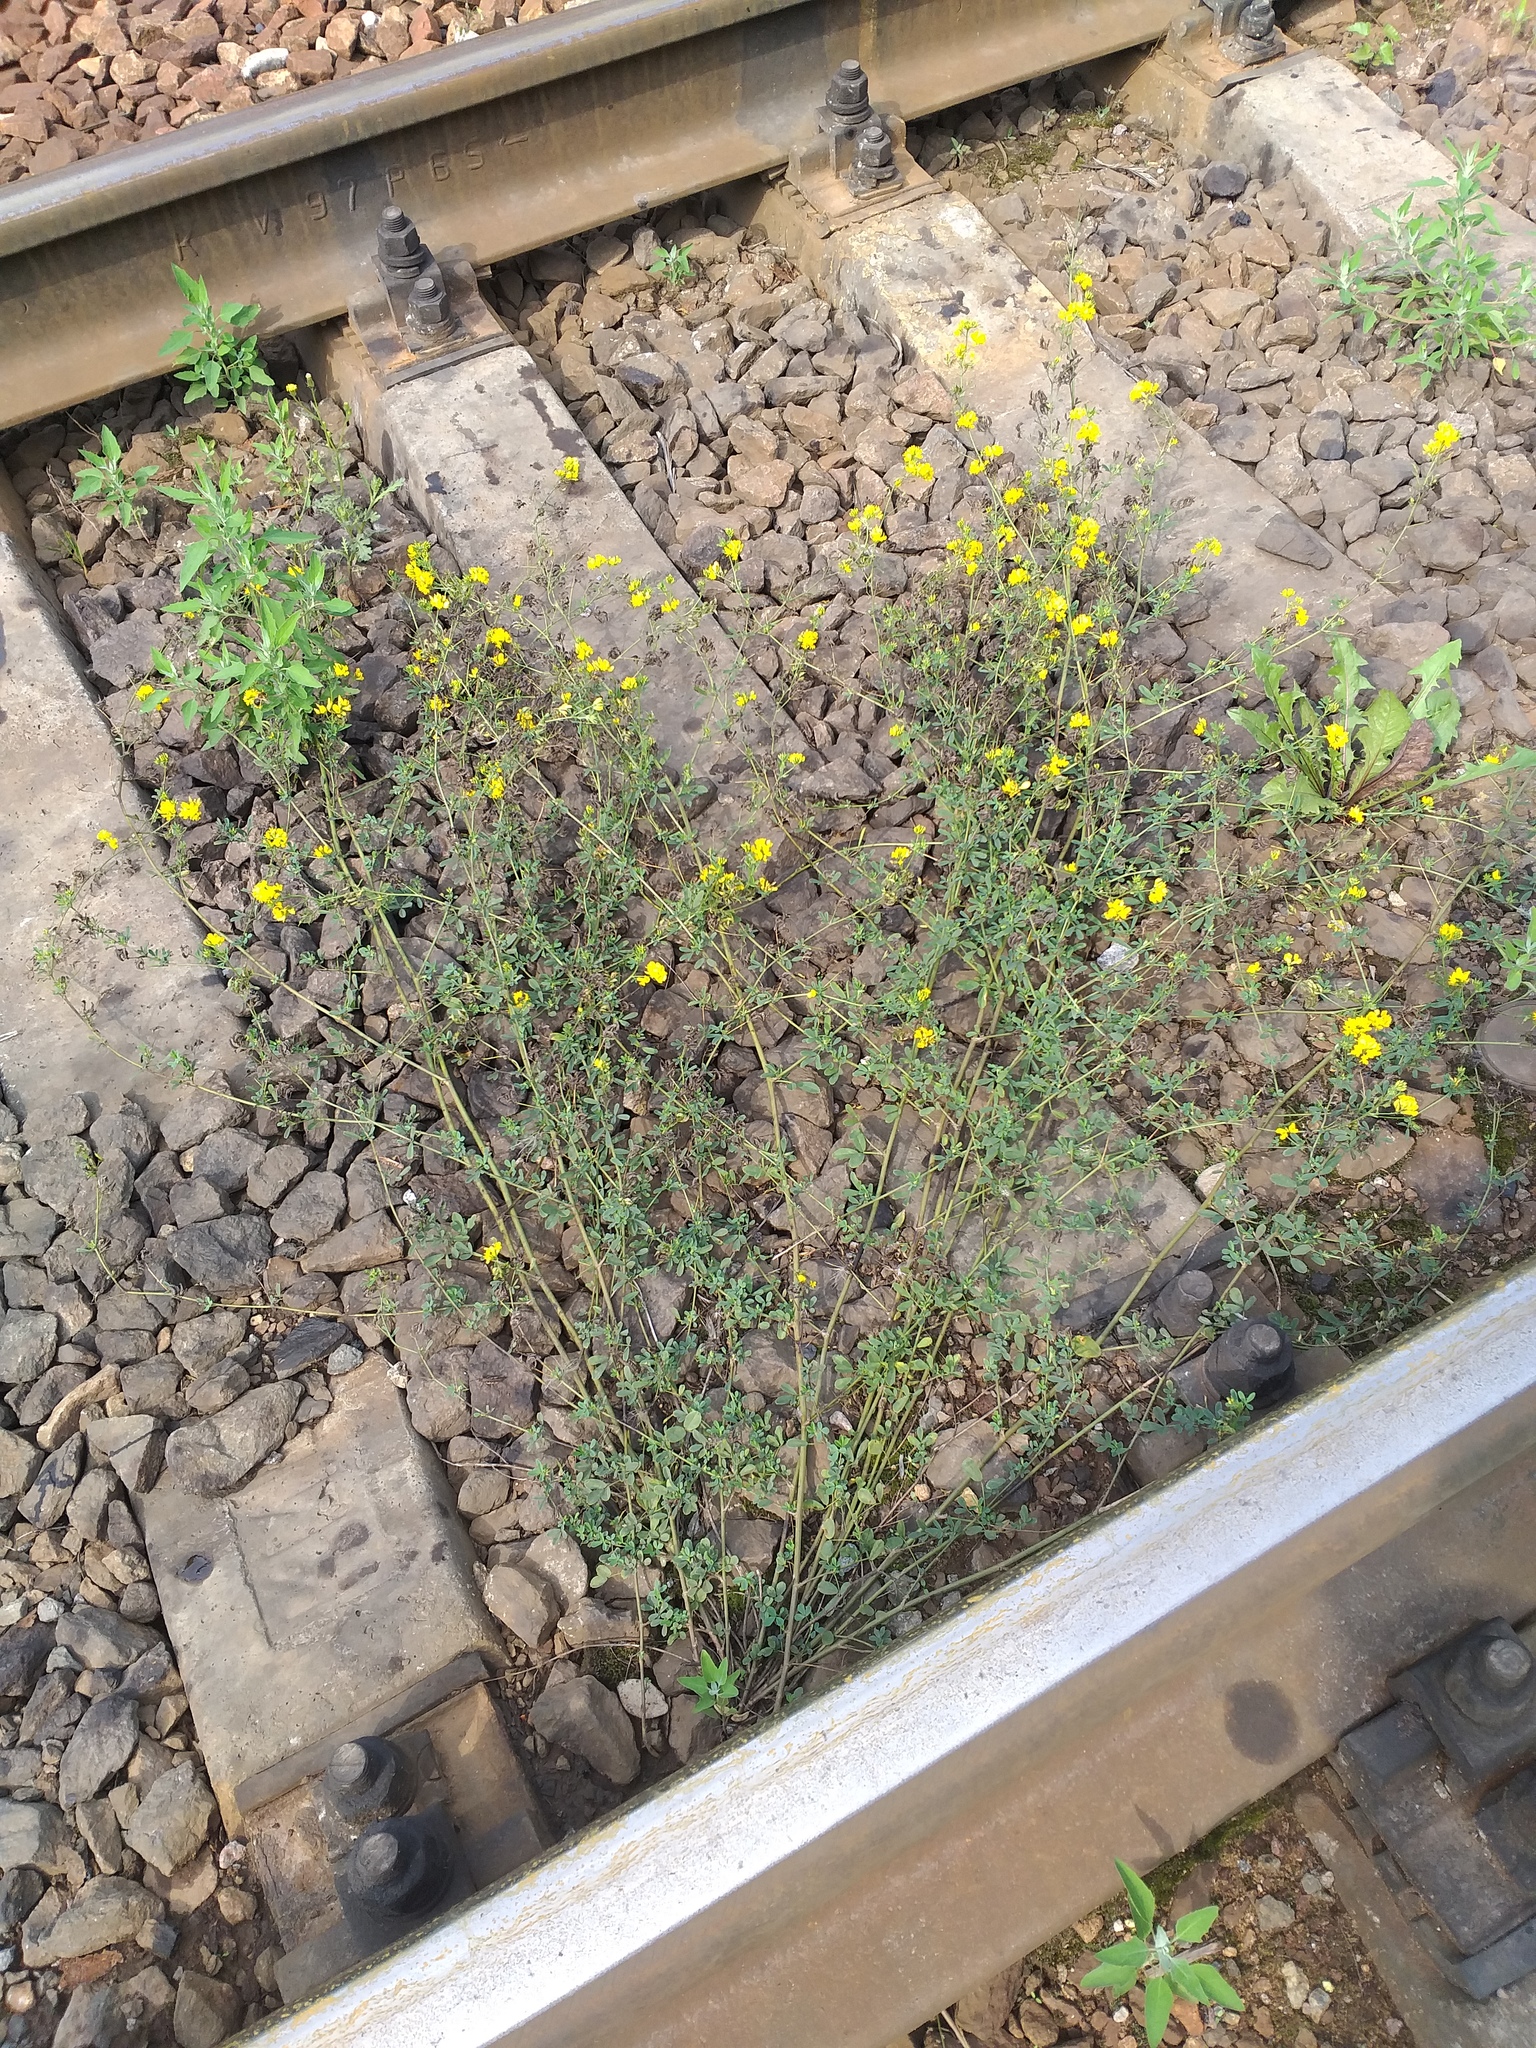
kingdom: Plantae
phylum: Tracheophyta
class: Magnoliopsida
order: Fabales
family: Fabaceae
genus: Medicago
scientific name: Medicago falcata
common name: Sickle medick
